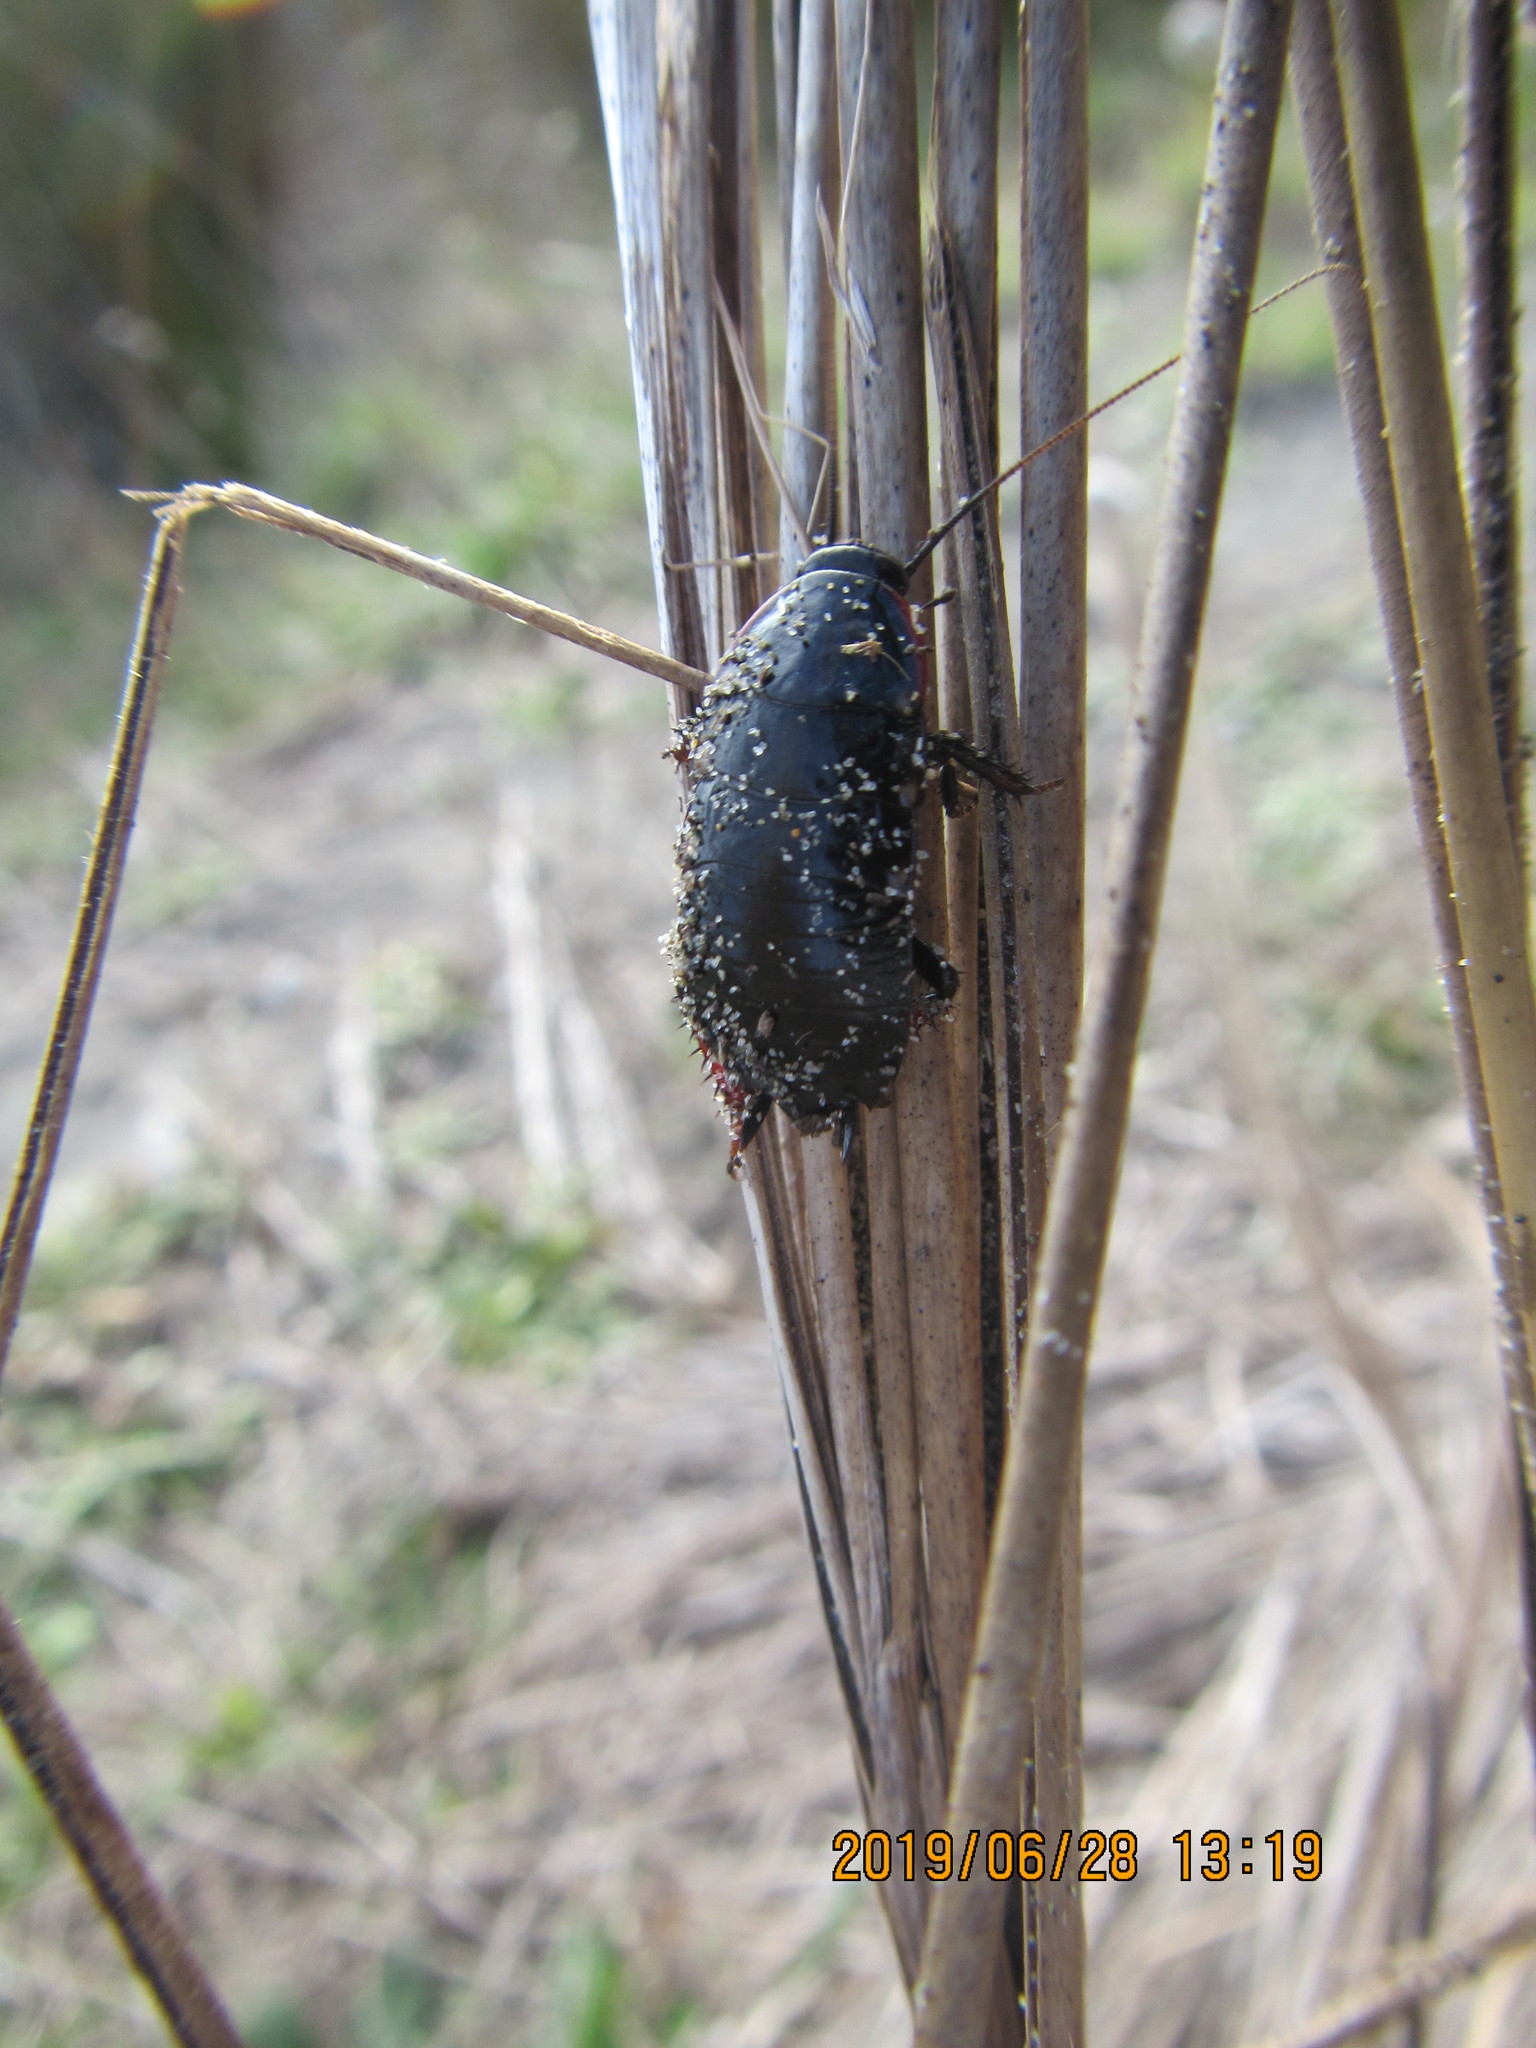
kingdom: Animalia
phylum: Arthropoda
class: Insecta
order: Blattodea
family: Blattidae
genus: Maoriblatta
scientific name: Maoriblatta novaeseelandiae
